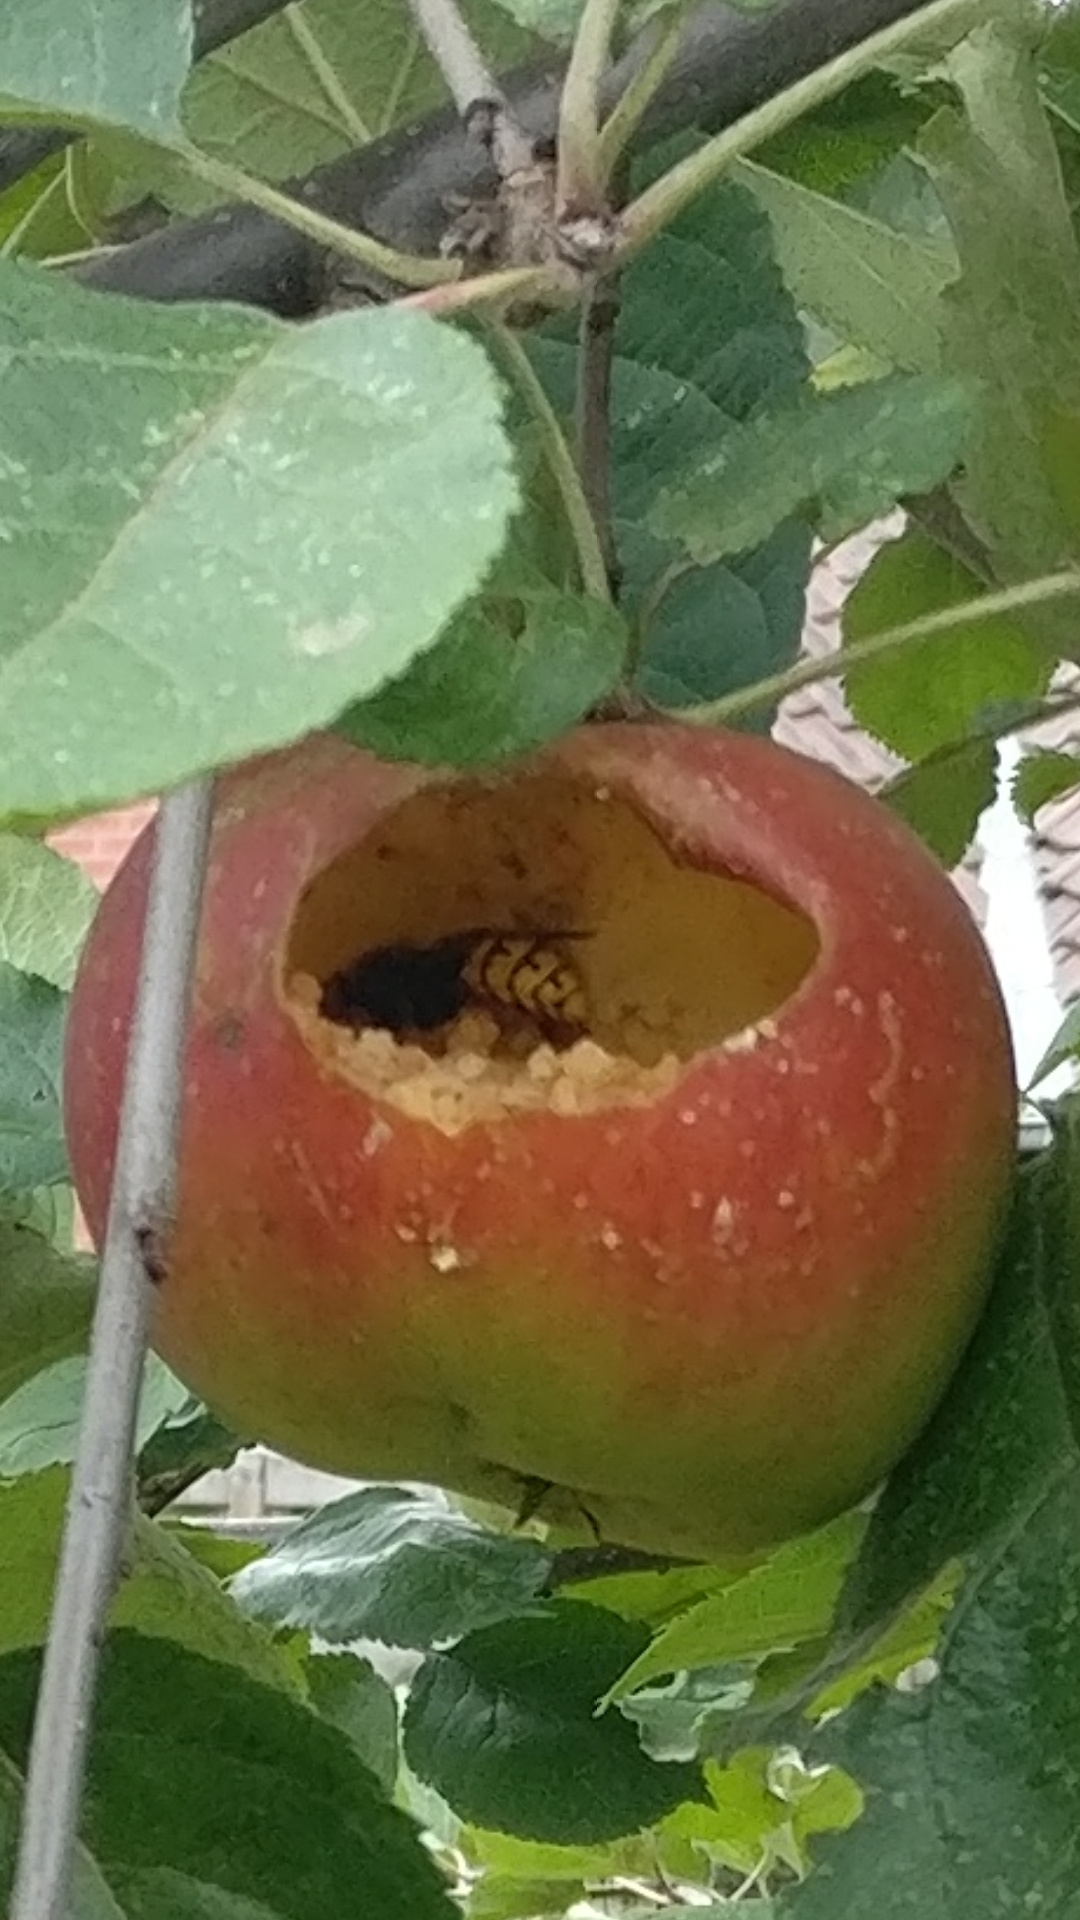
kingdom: Animalia
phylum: Arthropoda
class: Insecta
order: Hymenoptera
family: Vespidae
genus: Vespa
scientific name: Vespa crabro
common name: Hornet
